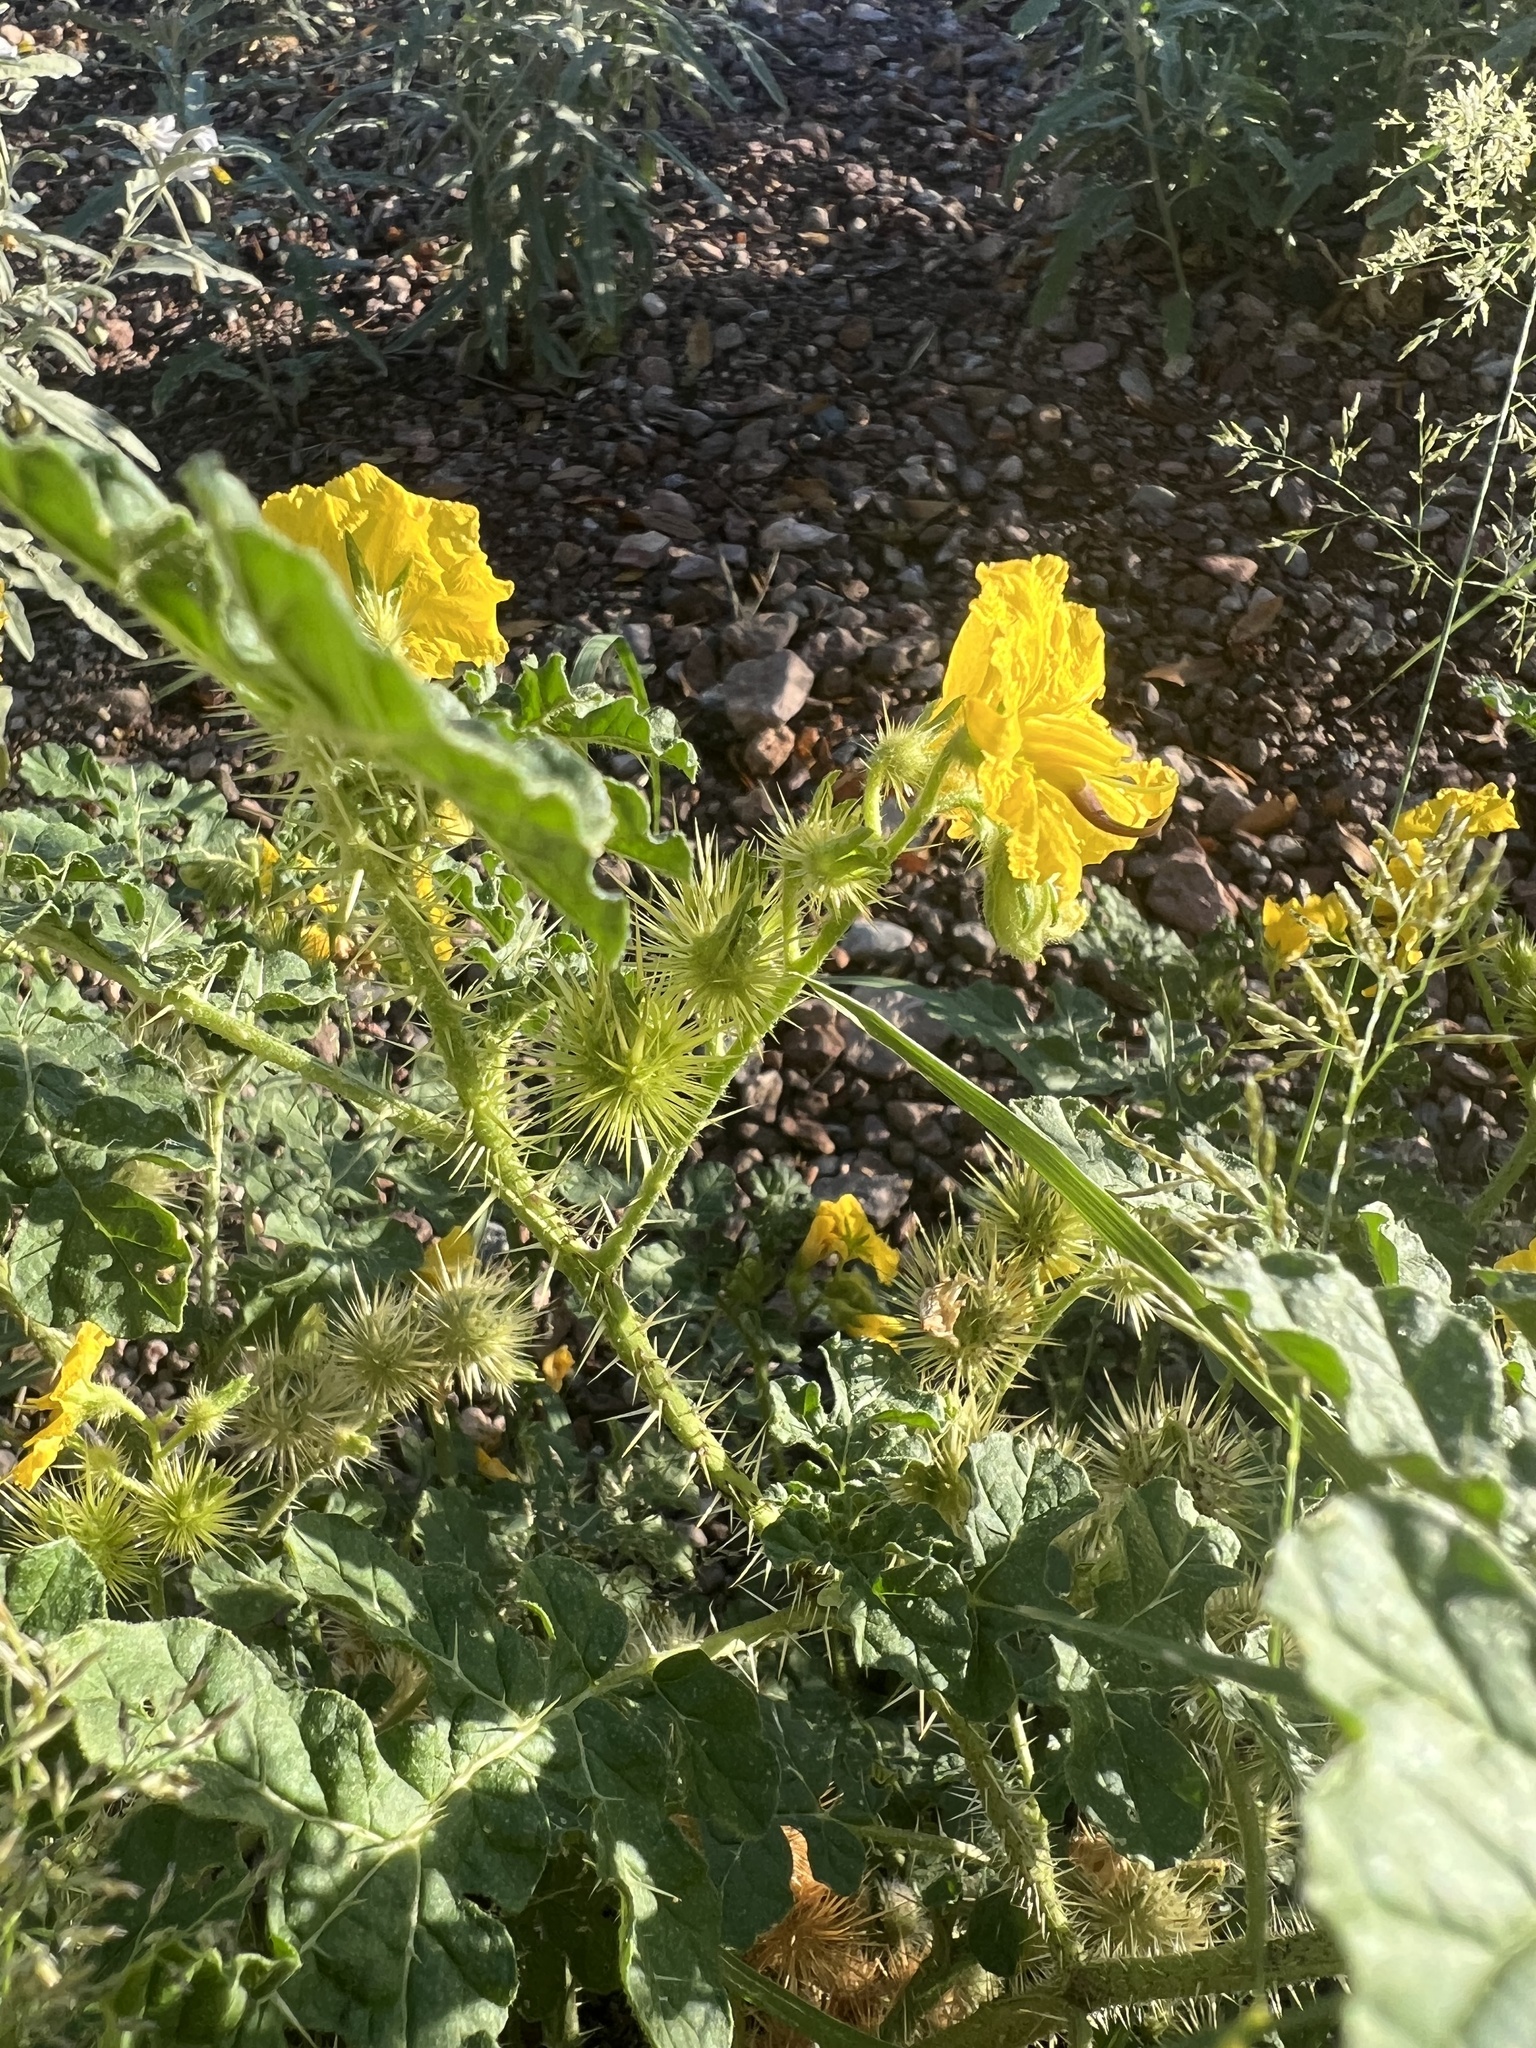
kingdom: Plantae
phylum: Tracheophyta
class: Magnoliopsida
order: Solanales
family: Solanaceae
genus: Solanum
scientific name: Solanum angustifolium
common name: Buffalobur nightshade
